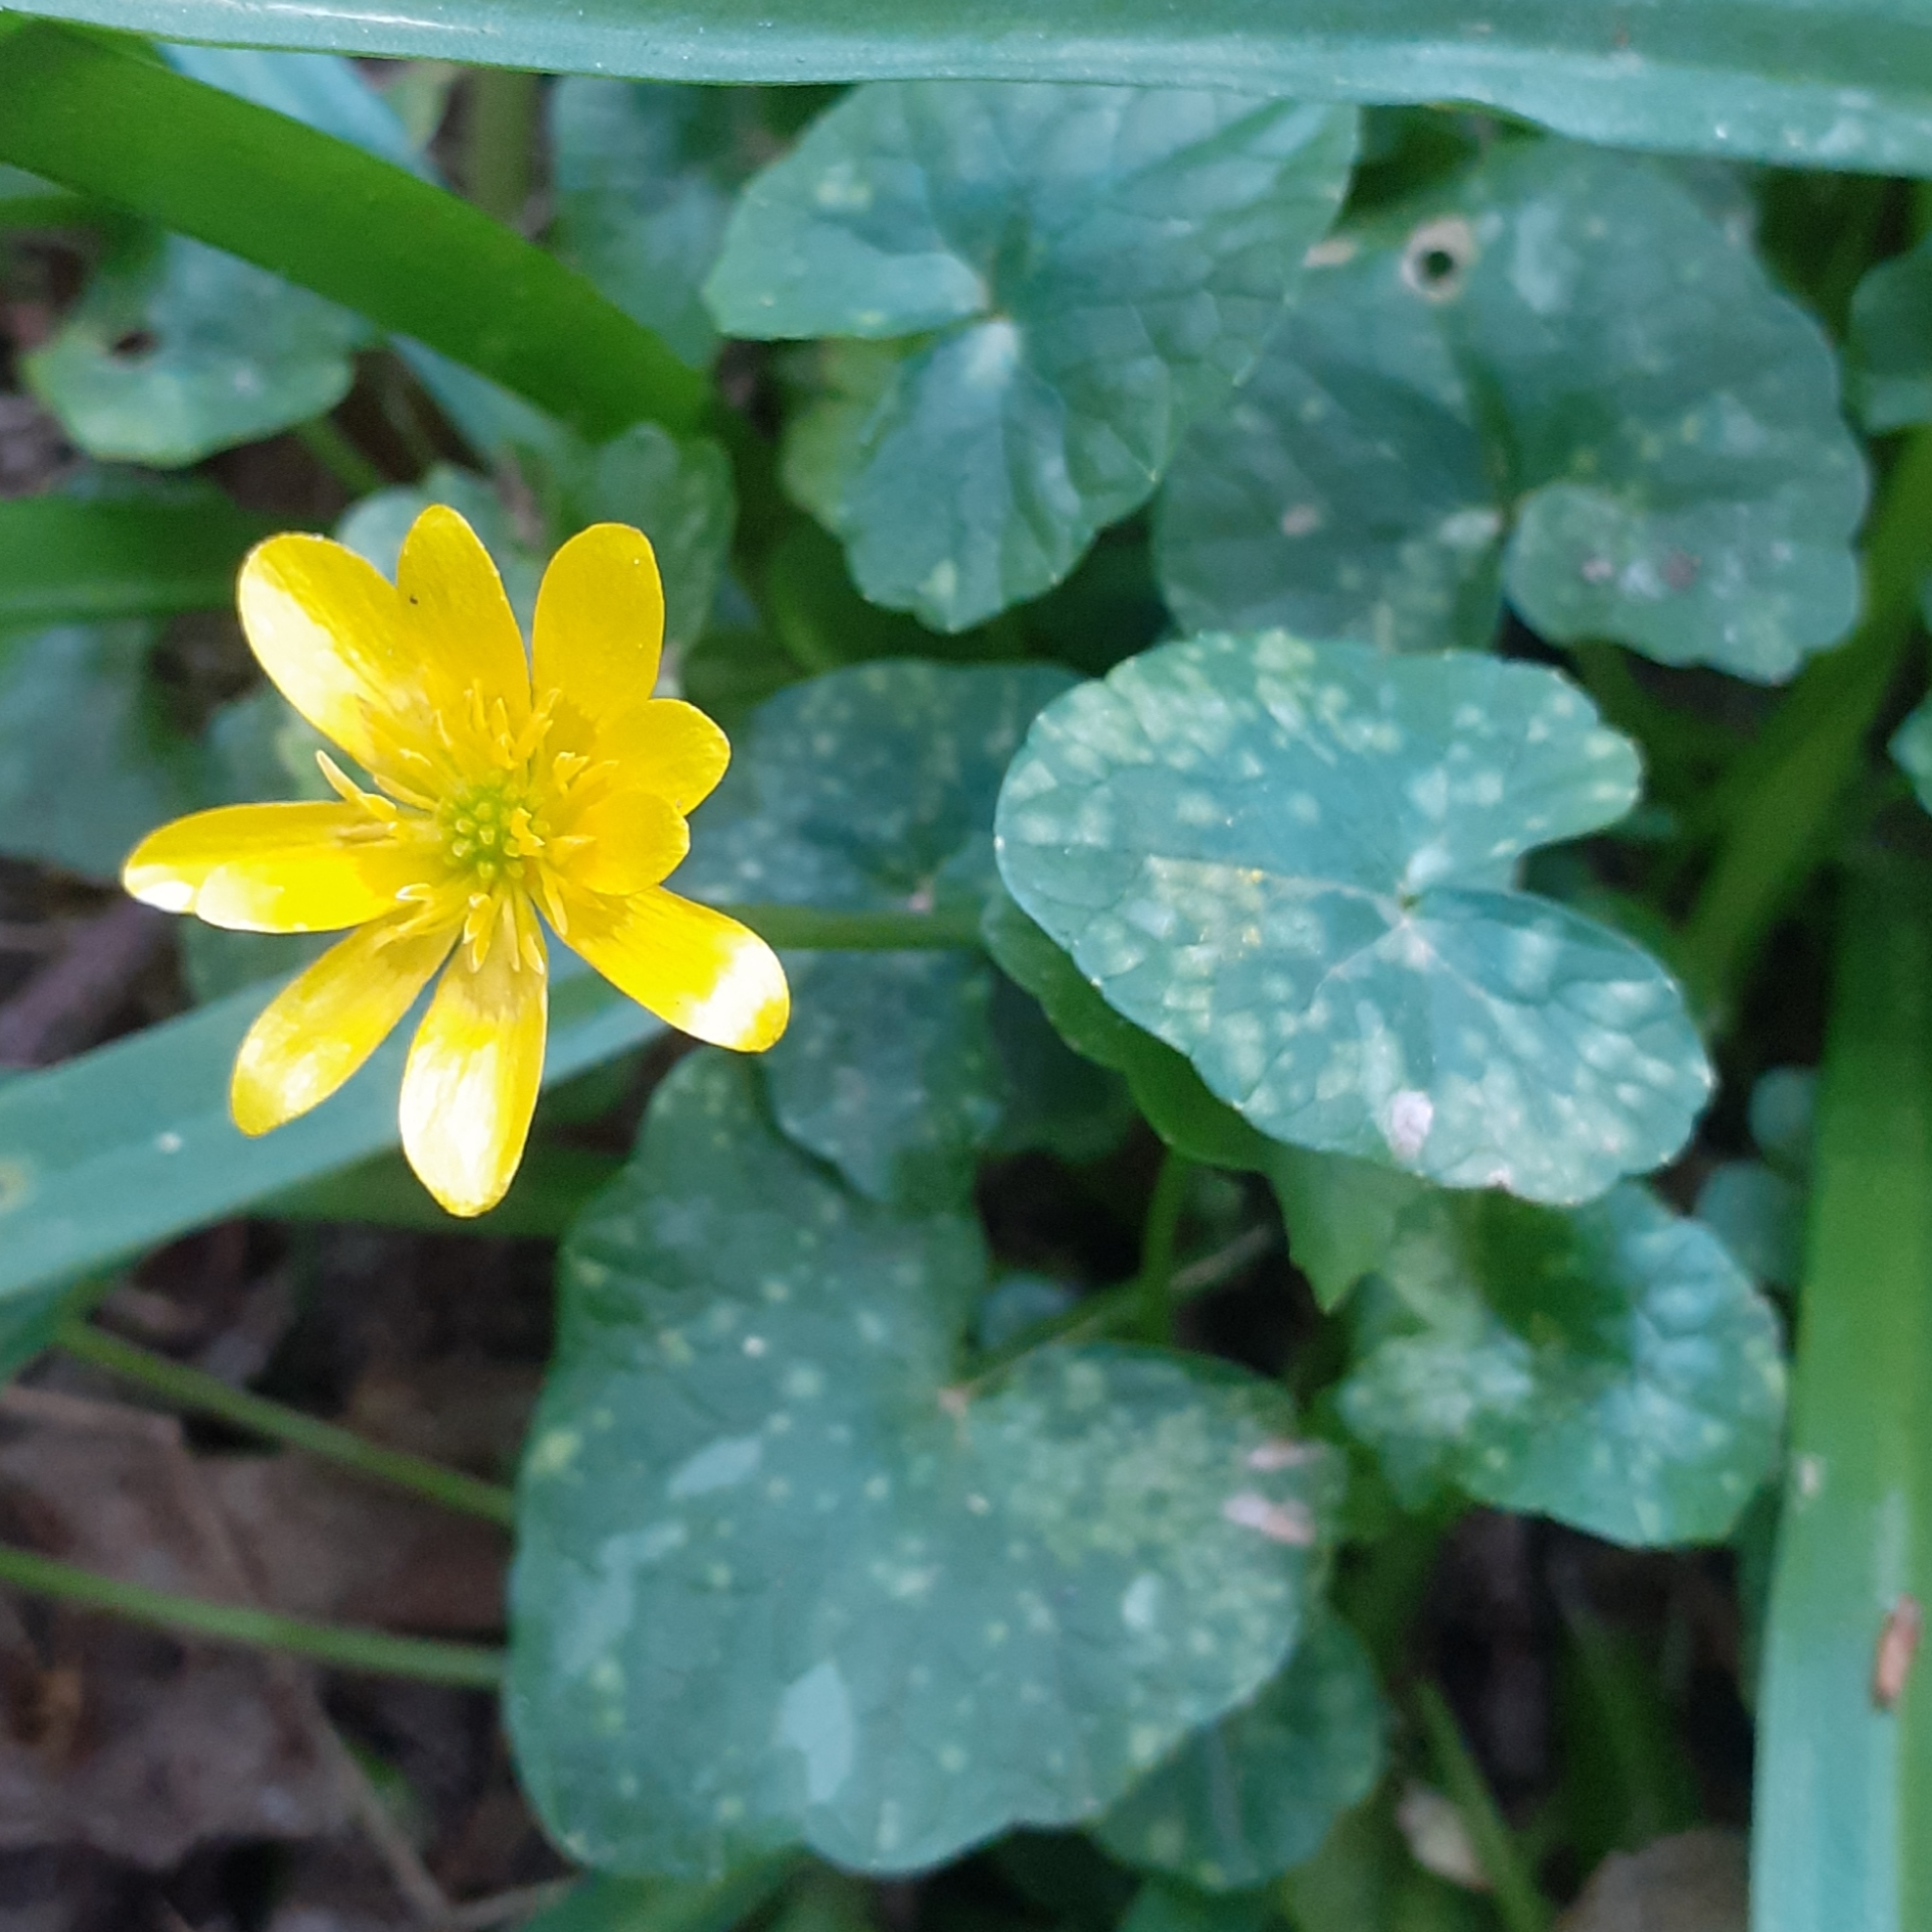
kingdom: Plantae
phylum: Tracheophyta
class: Magnoliopsida
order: Ranunculales
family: Ranunculaceae
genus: Ficaria
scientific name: Ficaria verna
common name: Lesser celandine
